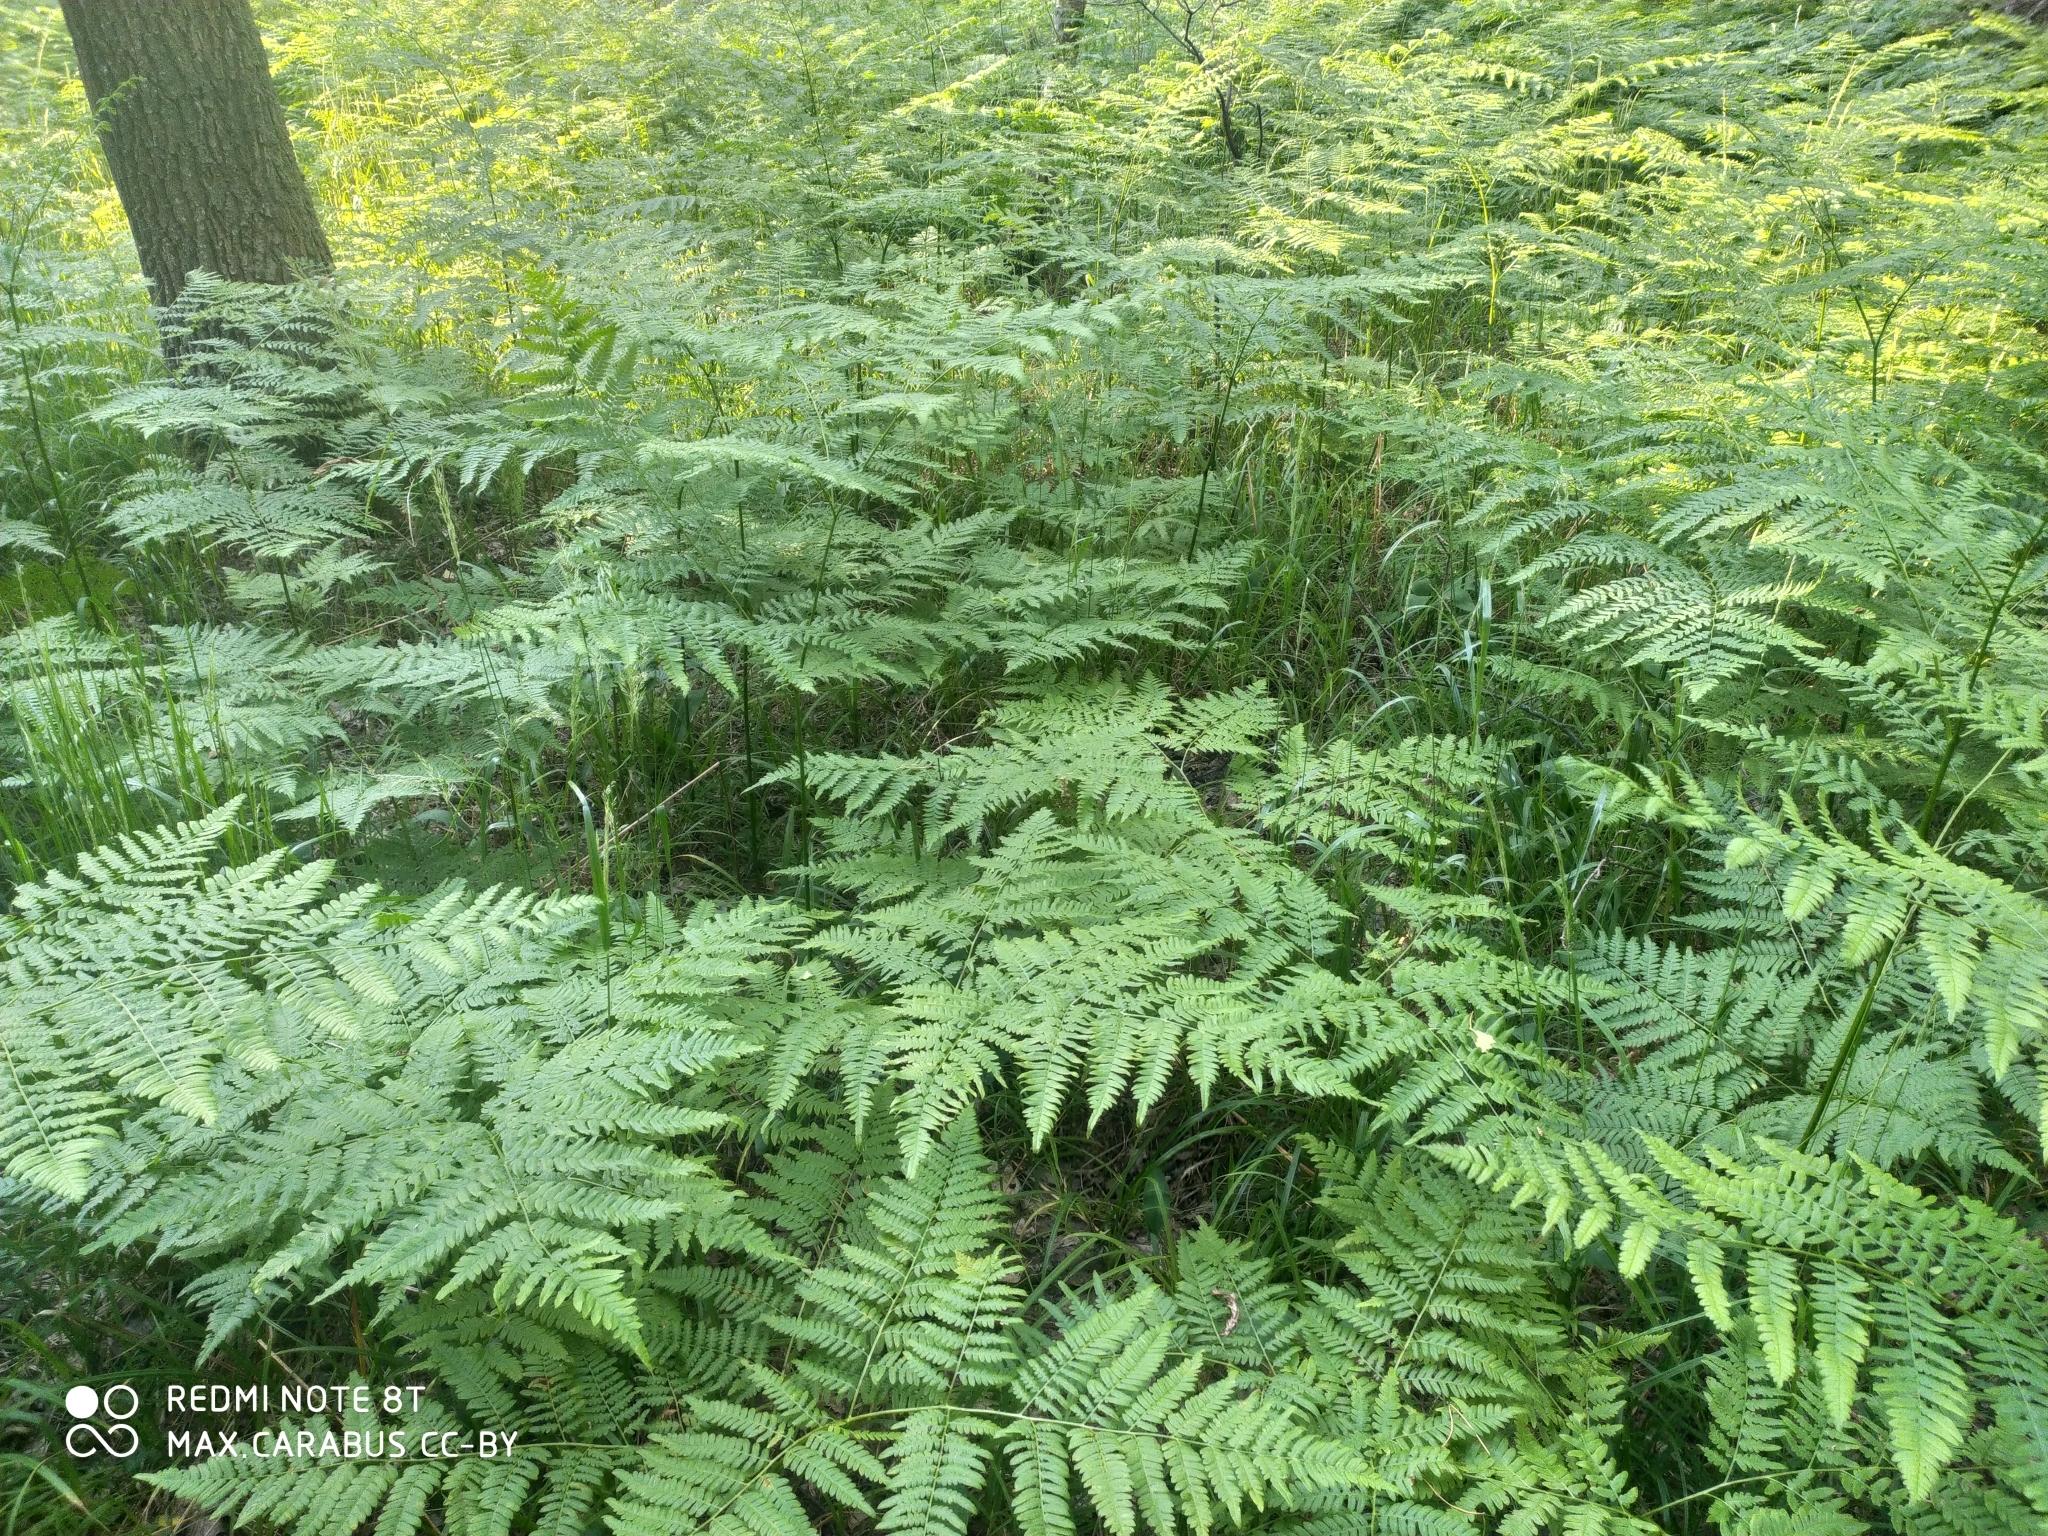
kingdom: Plantae
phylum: Tracheophyta
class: Polypodiopsida
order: Polypodiales
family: Dennstaedtiaceae
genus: Pteridium
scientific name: Pteridium aquilinum
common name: Bracken
